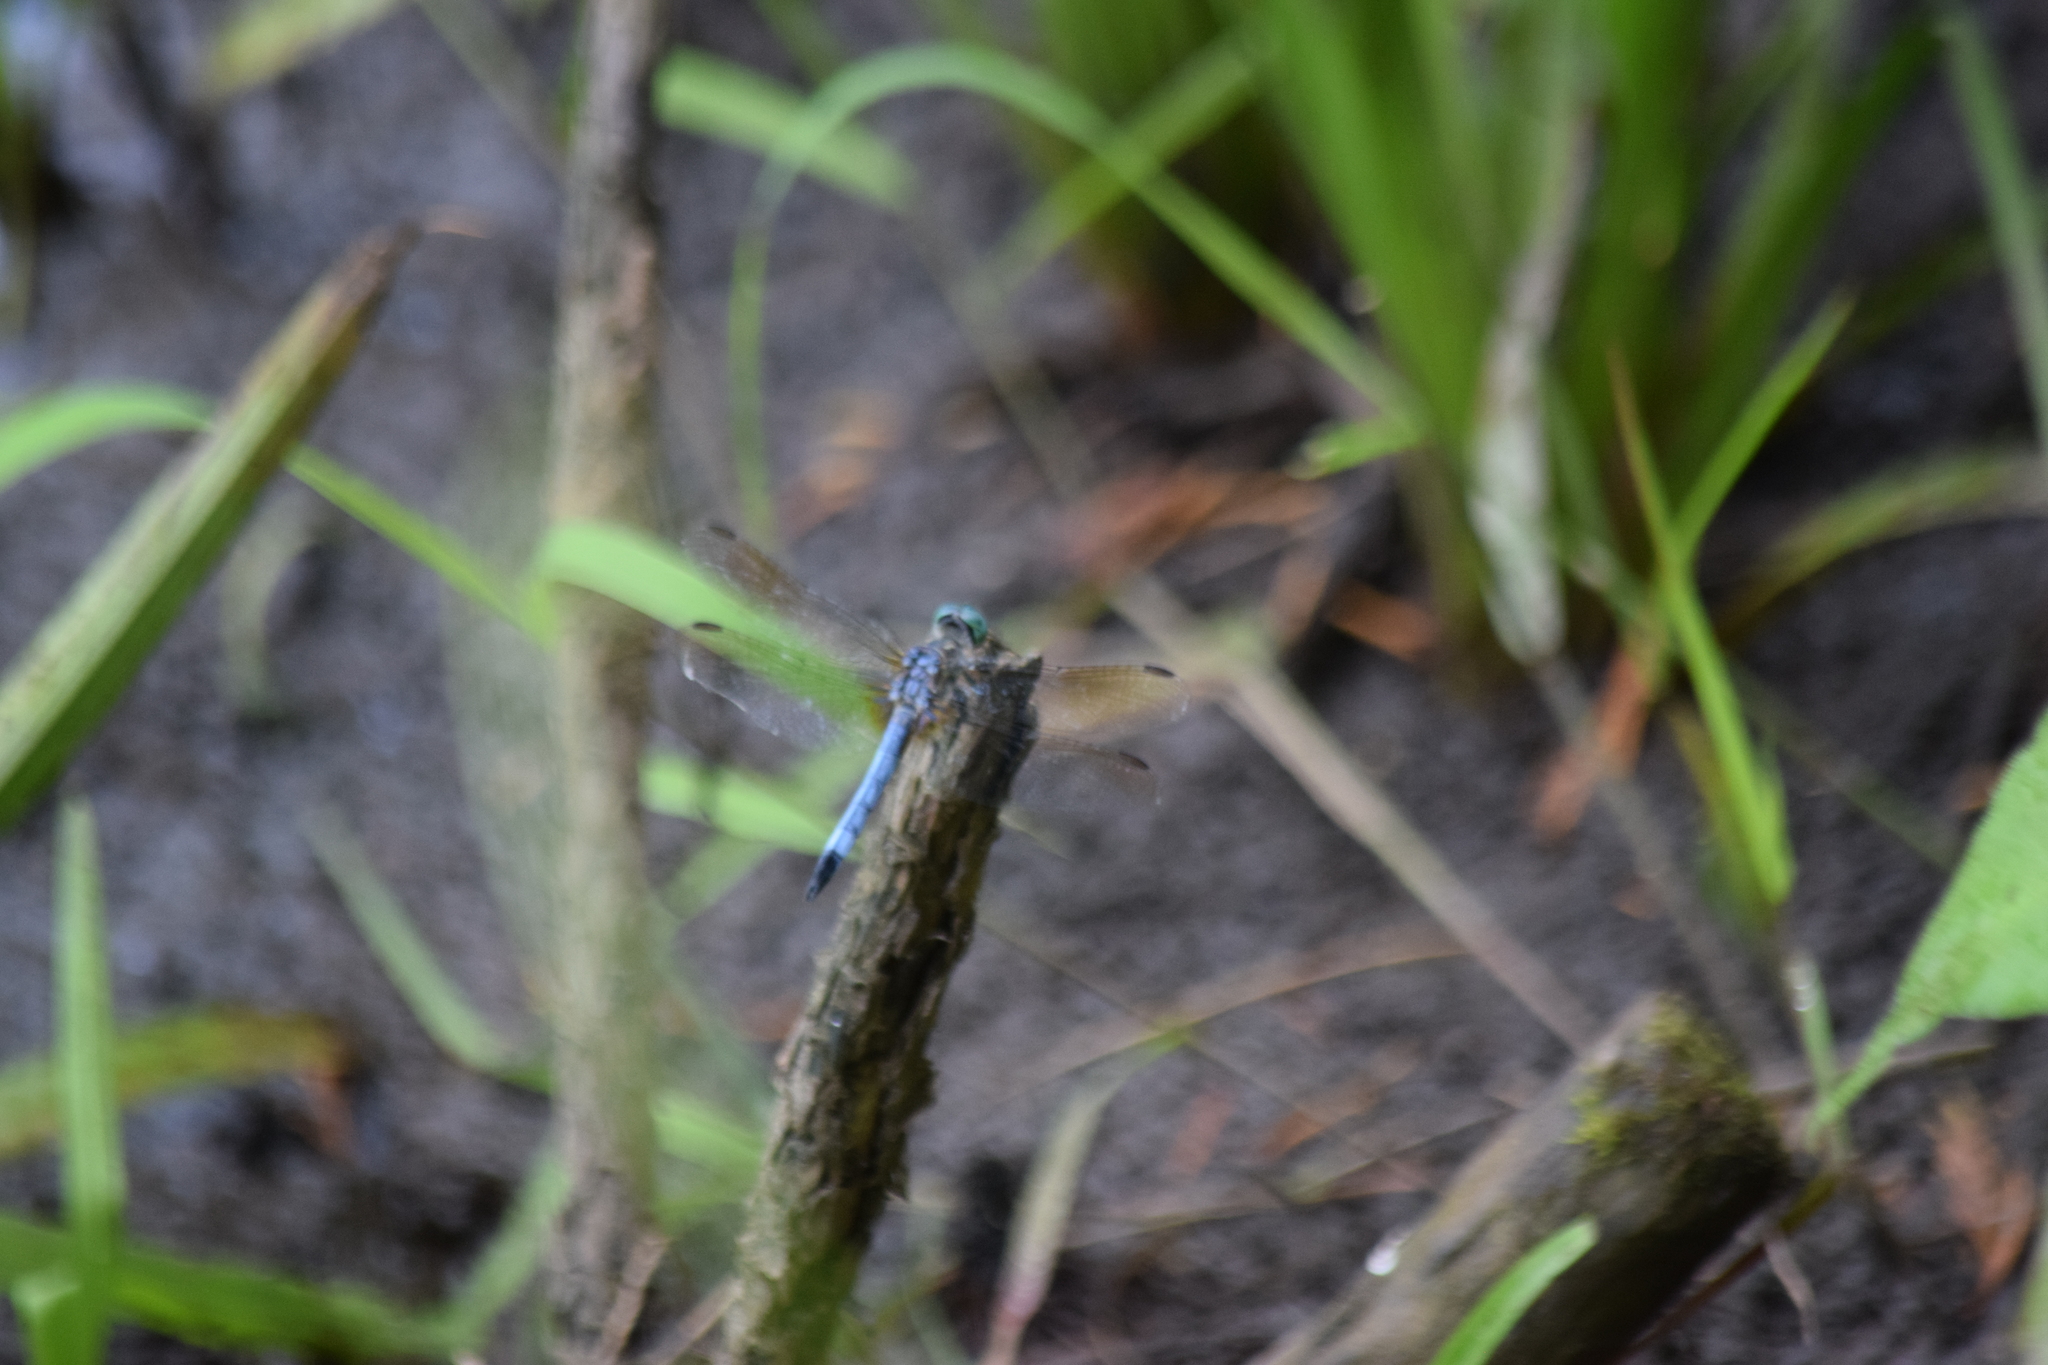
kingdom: Animalia
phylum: Arthropoda
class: Insecta
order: Odonata
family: Libellulidae
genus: Pachydiplax
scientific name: Pachydiplax longipennis
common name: Blue dasher
